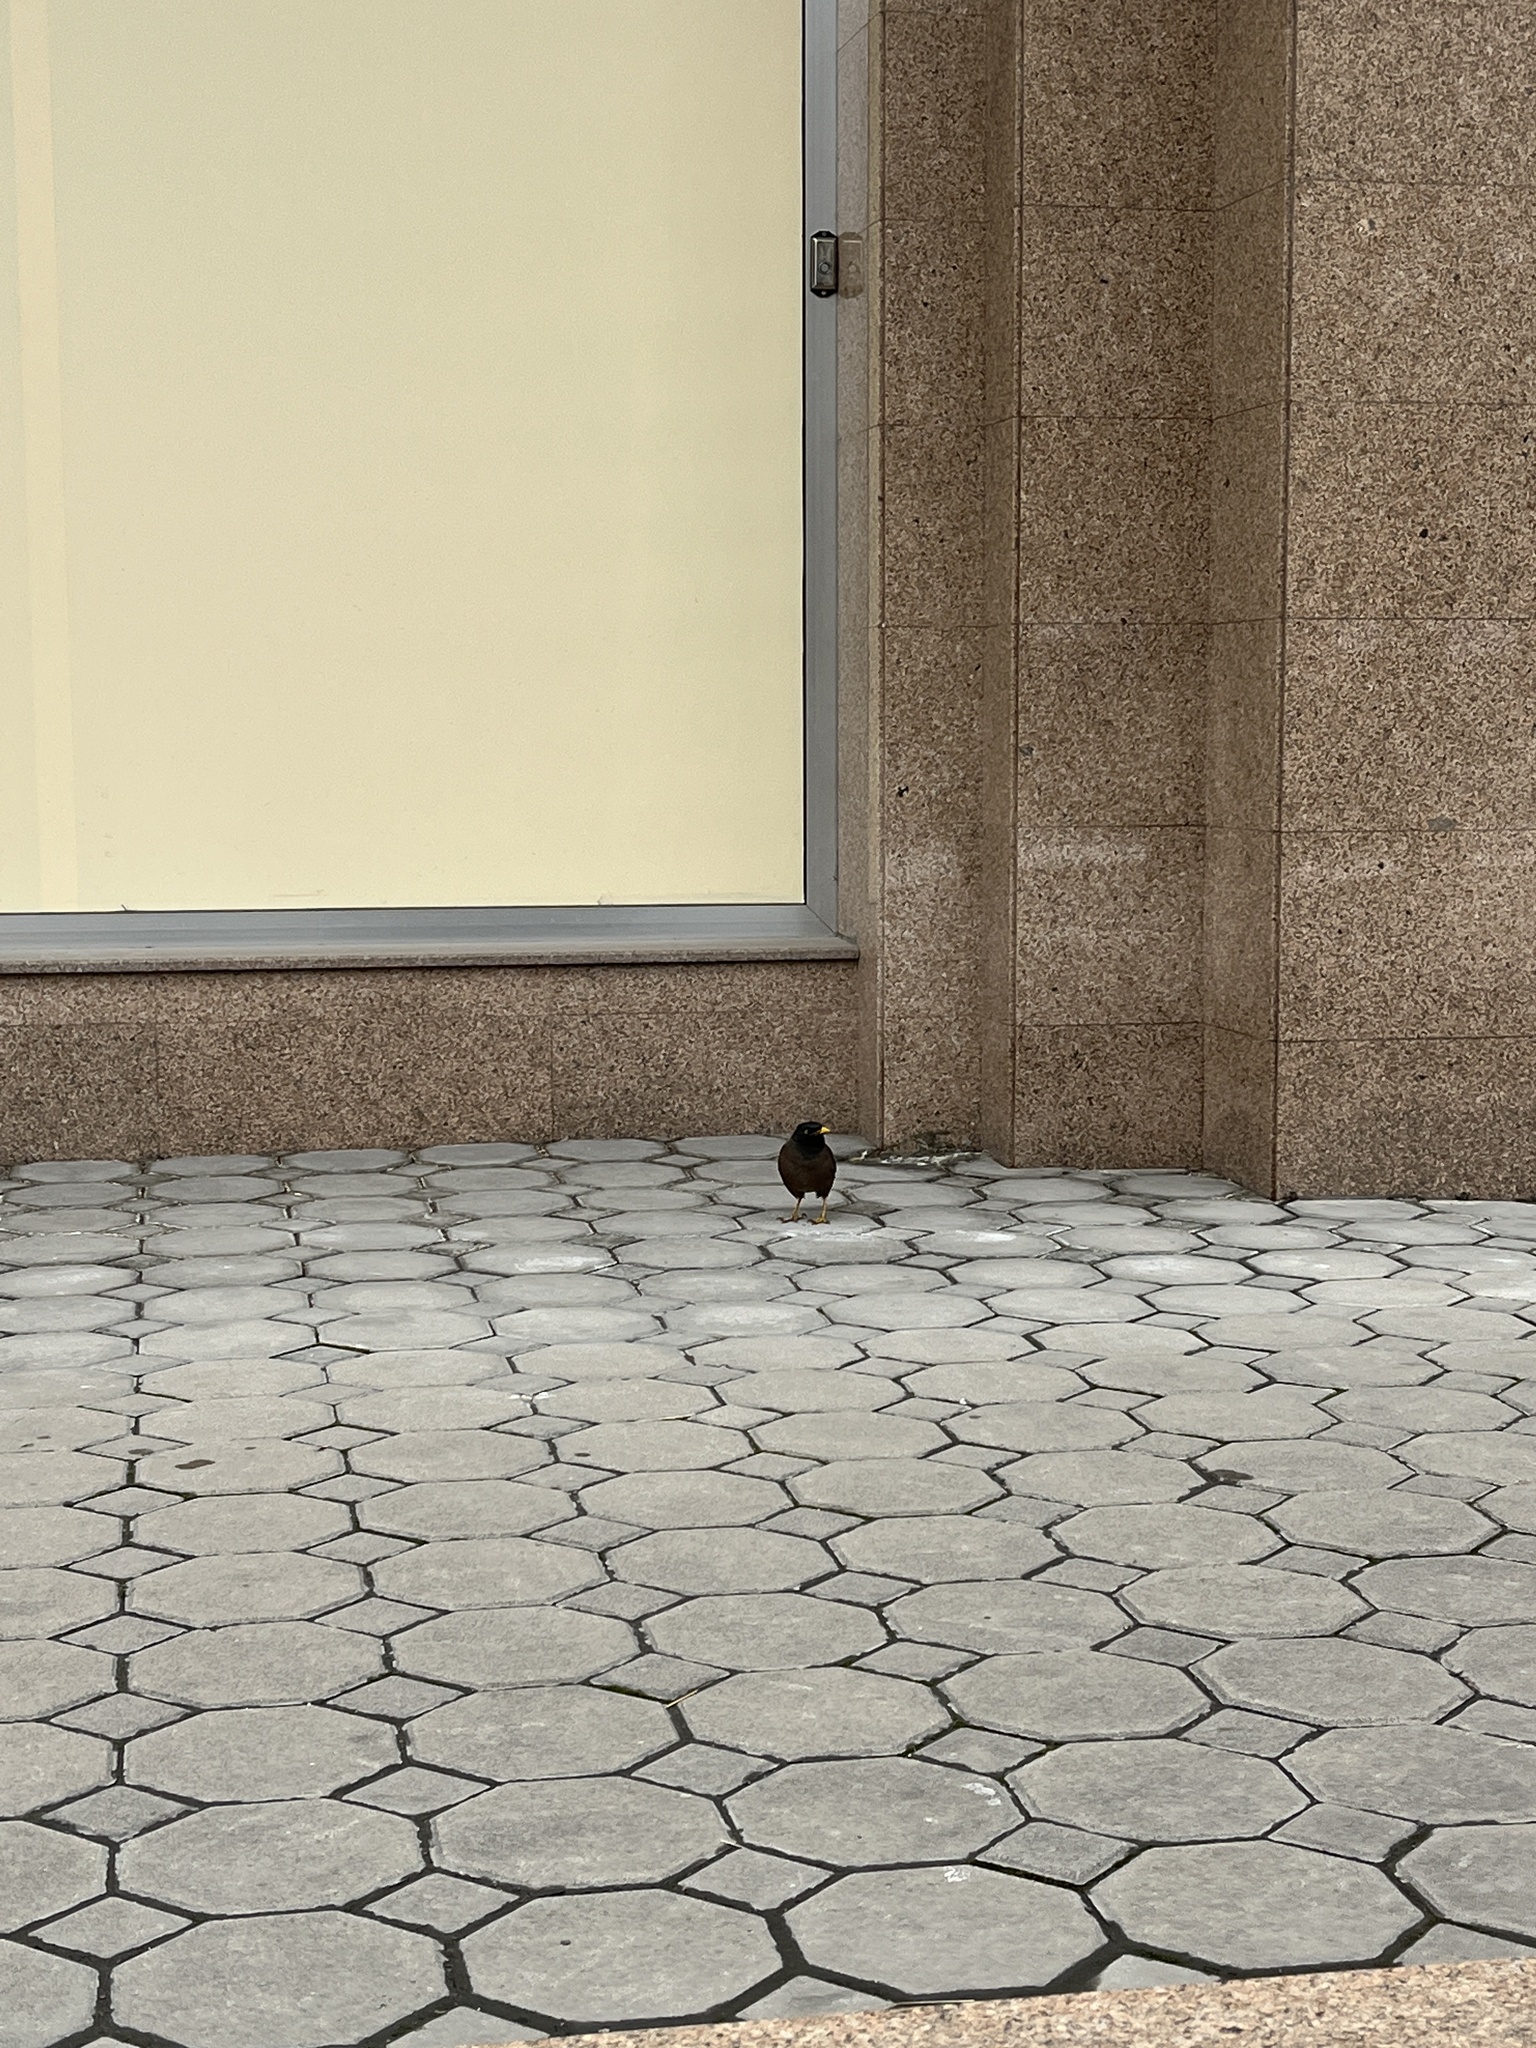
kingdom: Animalia
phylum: Chordata
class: Aves
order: Passeriformes
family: Sturnidae
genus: Acridotheres
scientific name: Acridotheres tristis
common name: Common myna
